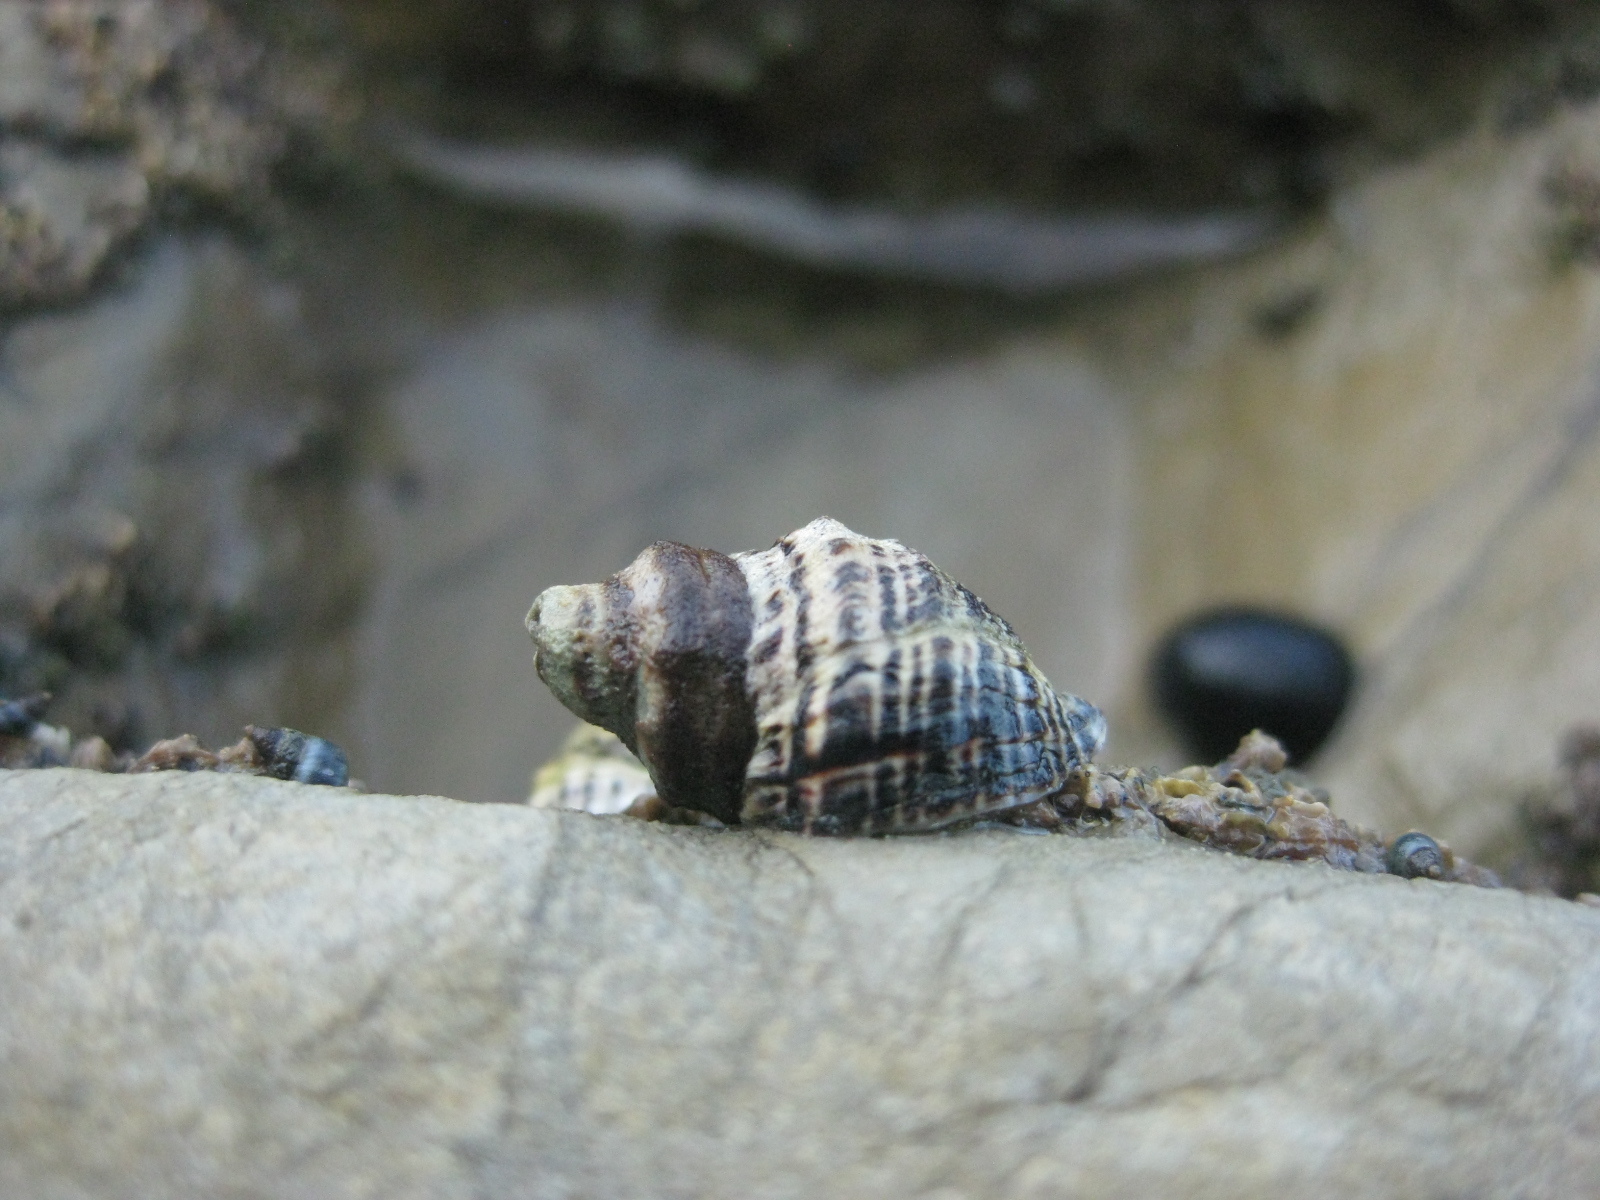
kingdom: Animalia
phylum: Mollusca
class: Gastropoda
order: Neogastropoda
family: Muricidae
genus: Haustrum
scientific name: Haustrum albomarginatum
